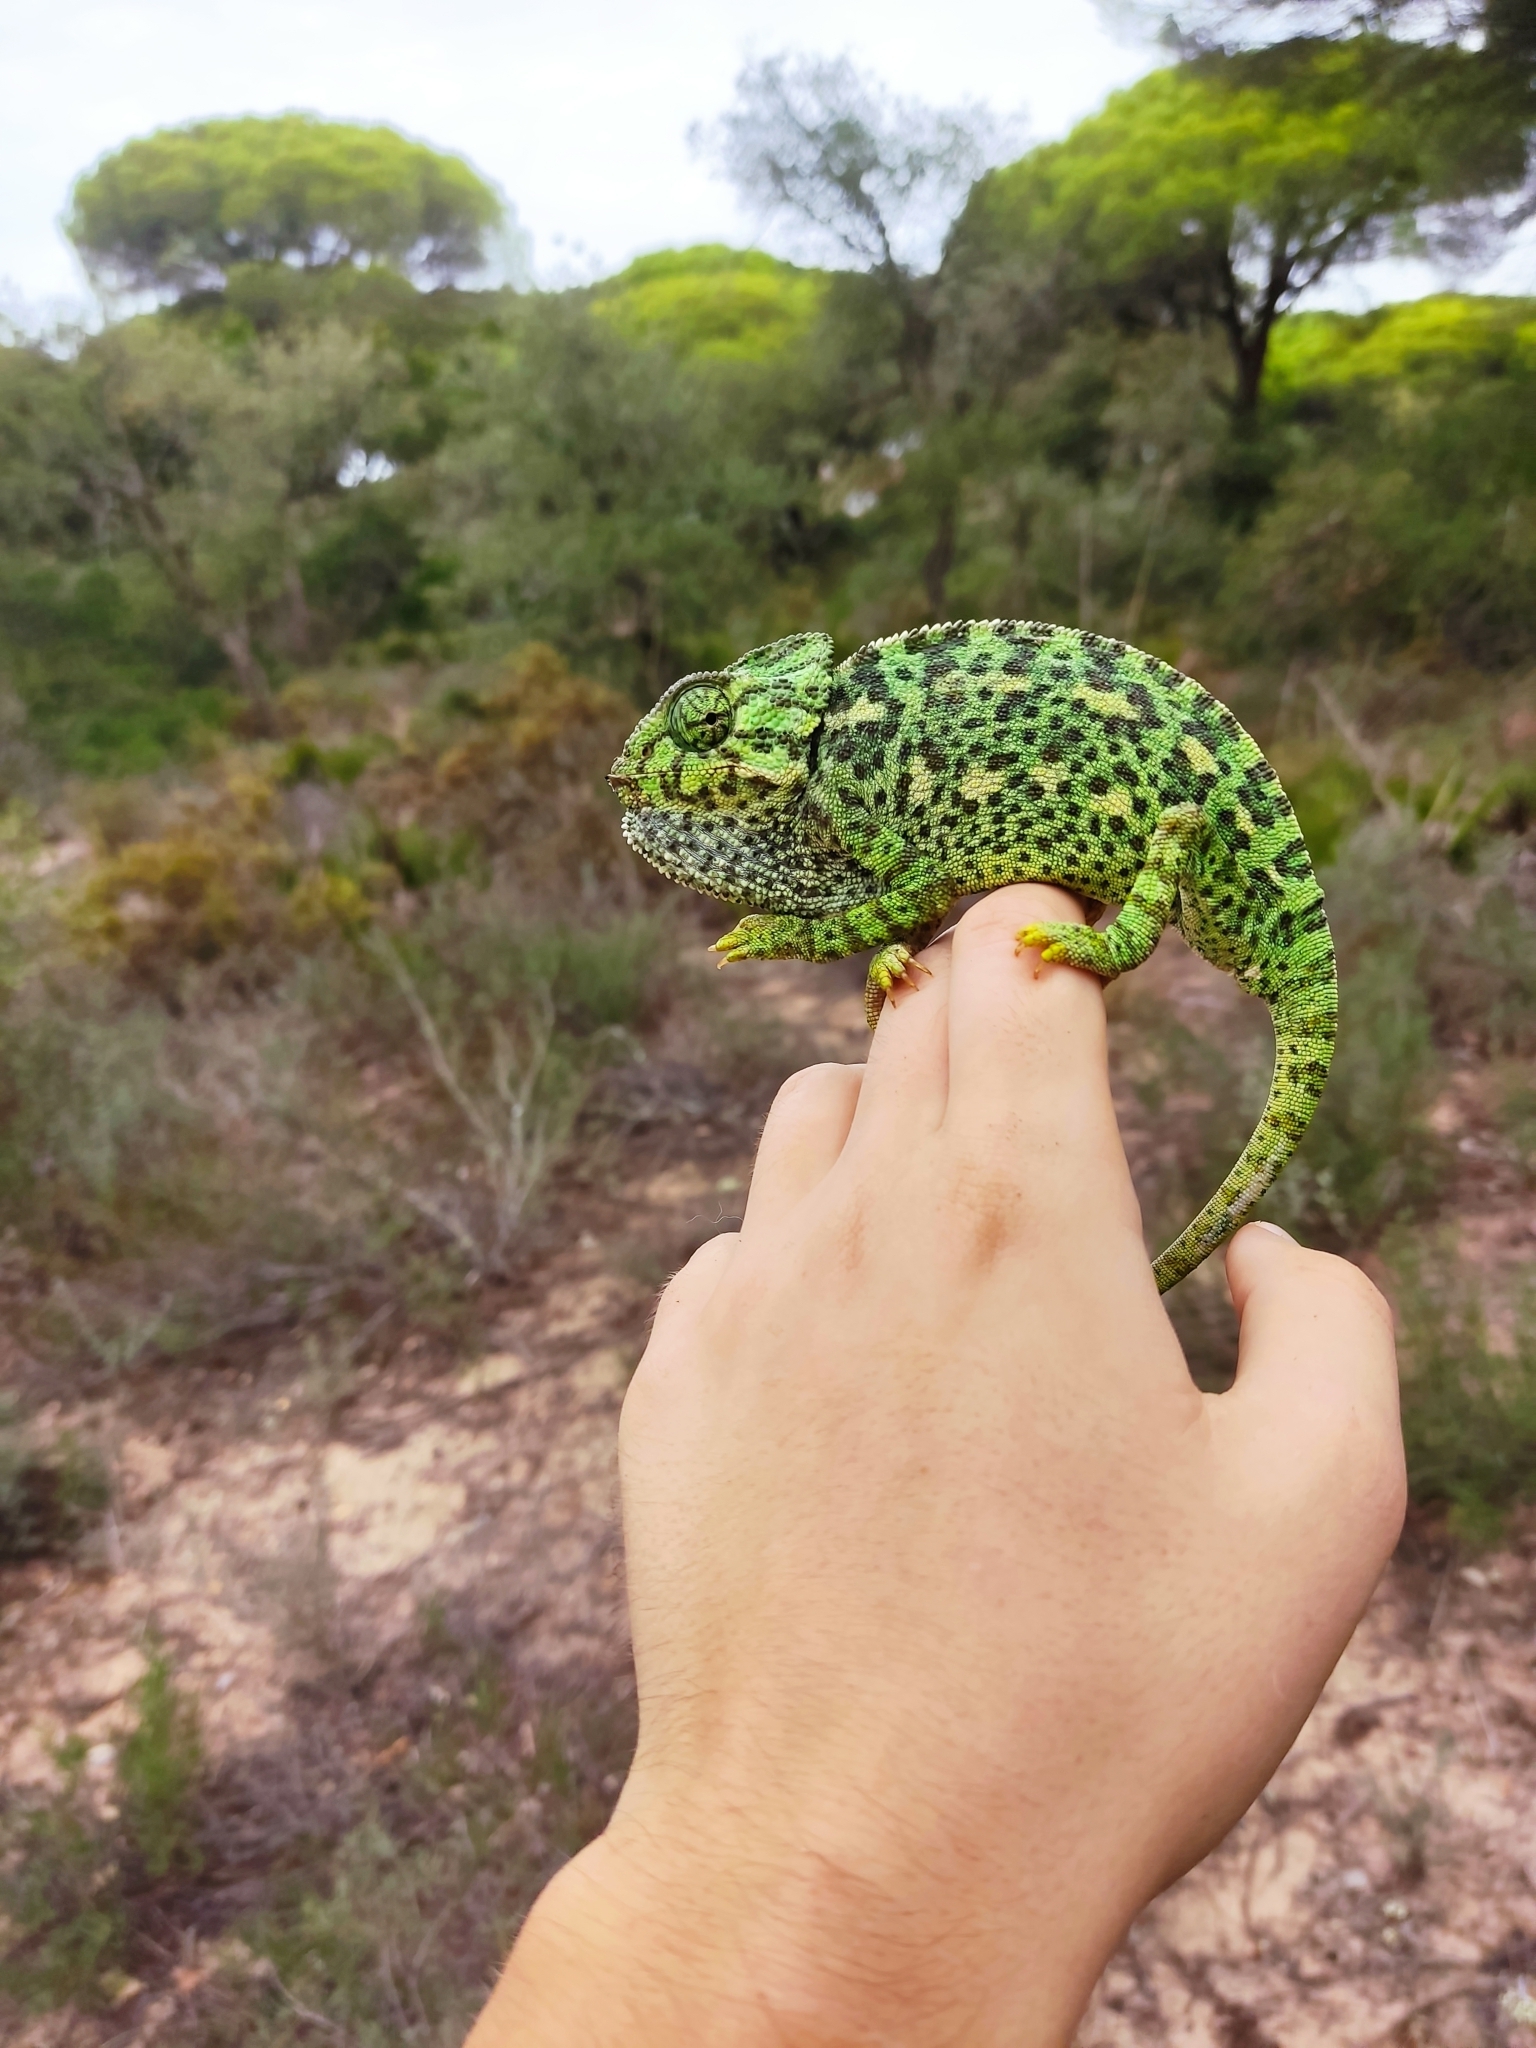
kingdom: Animalia
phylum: Chordata
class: Squamata
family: Chamaeleonidae
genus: Chamaeleo
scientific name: Chamaeleo chamaeleon
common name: Mediterranean chameleon
